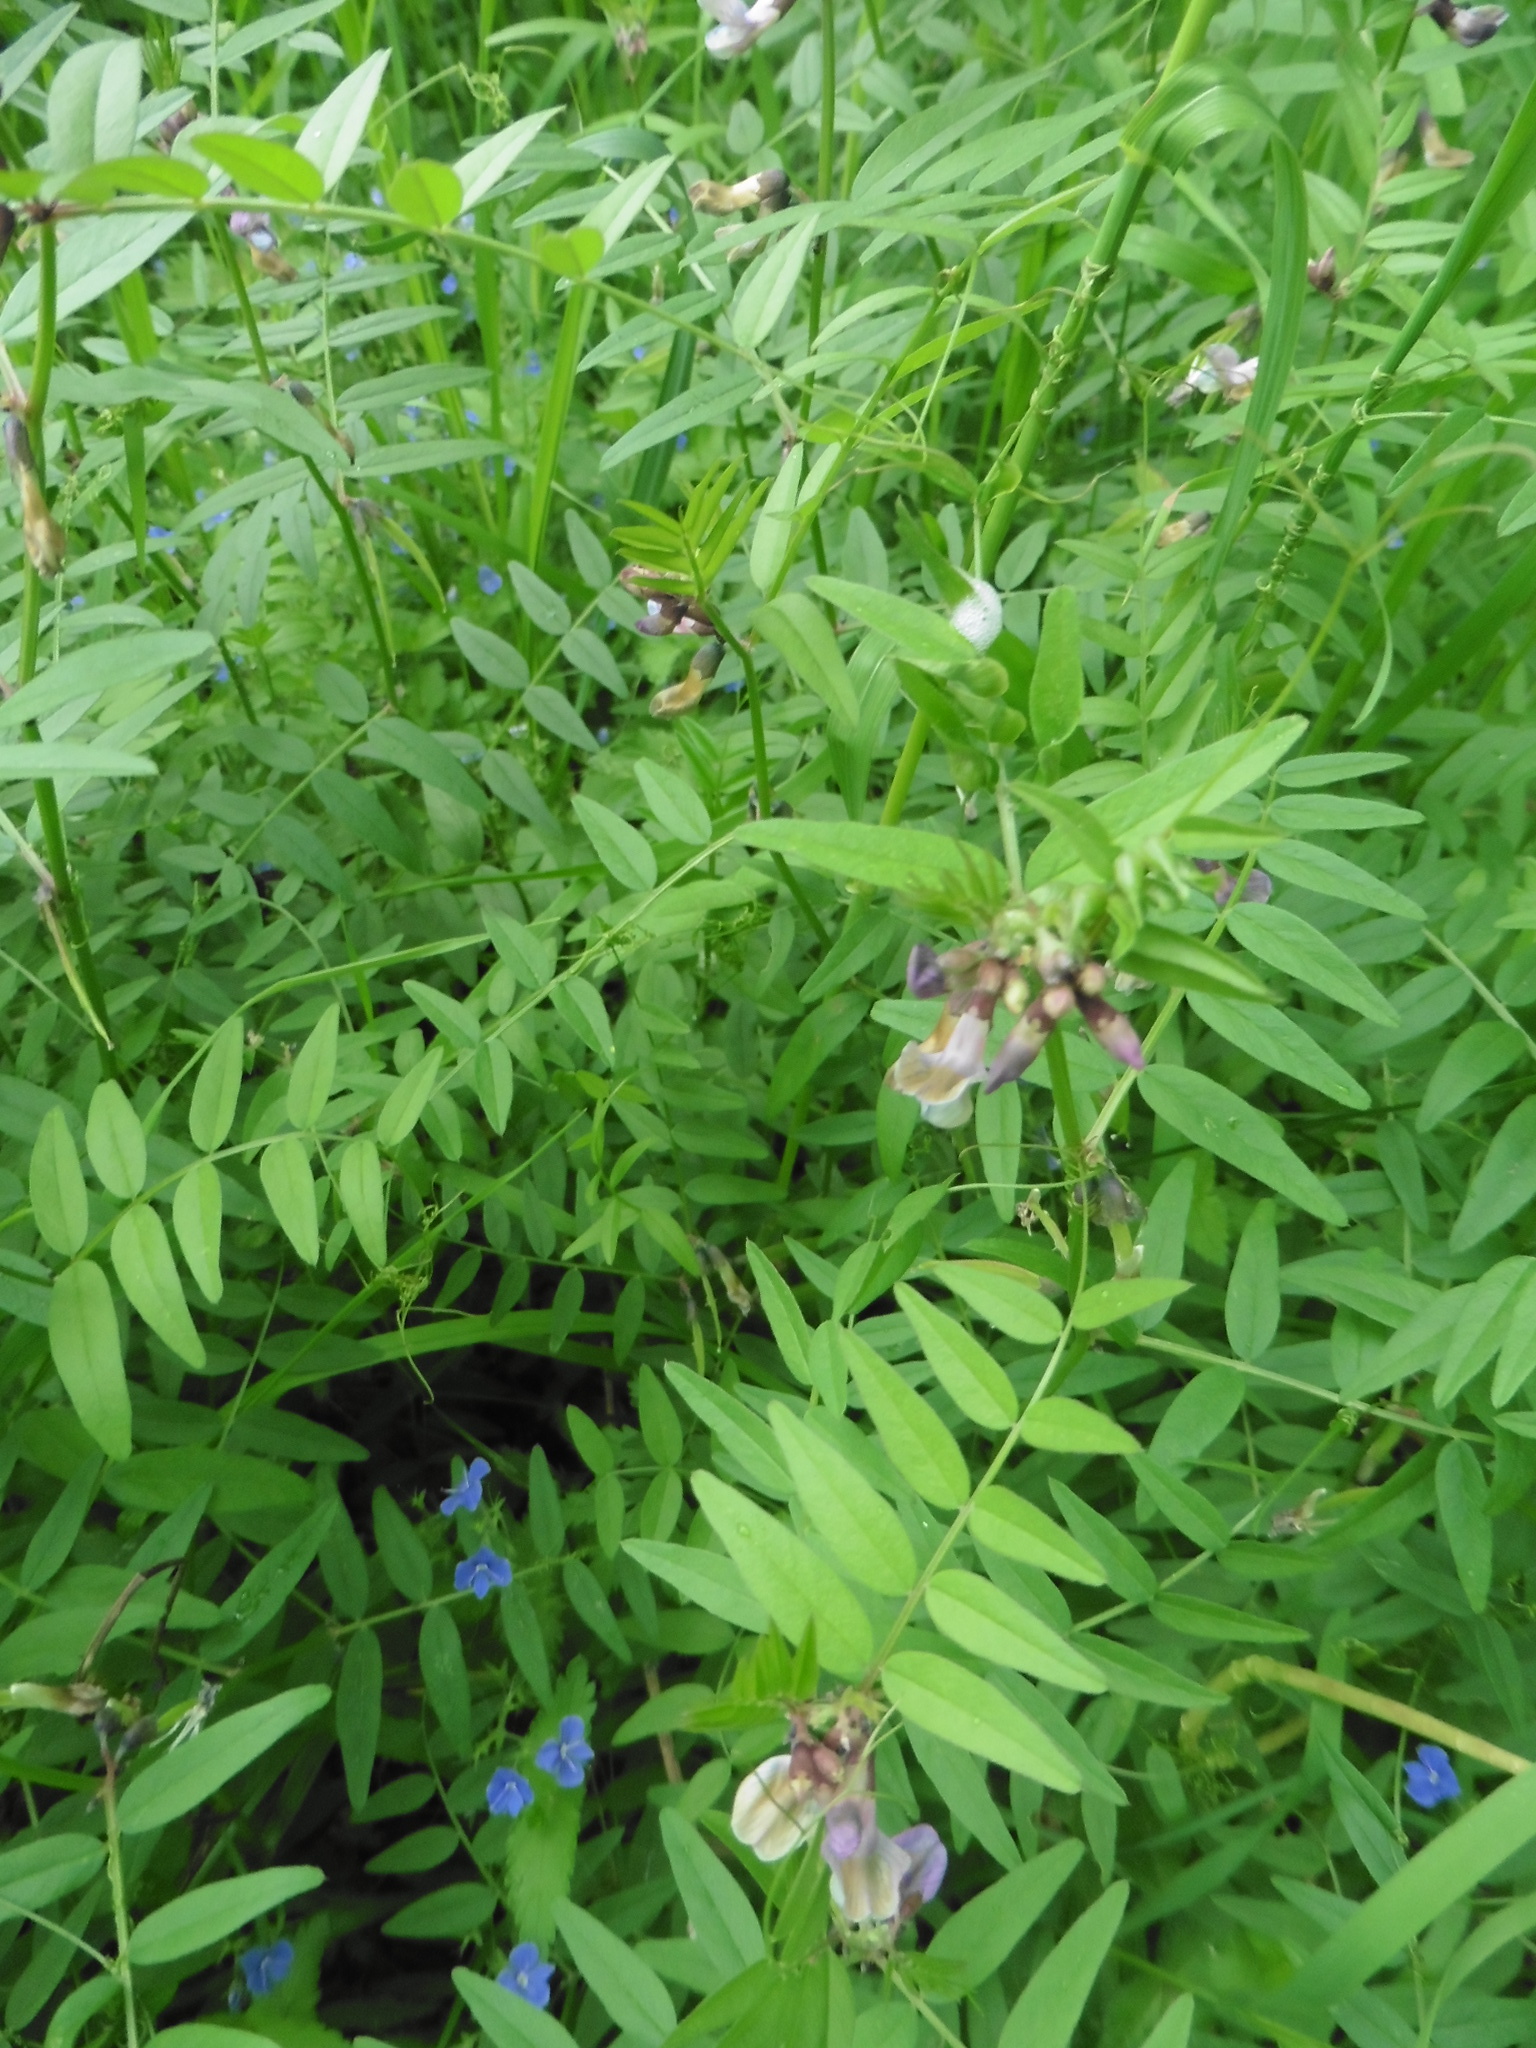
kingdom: Plantae
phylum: Tracheophyta
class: Magnoliopsida
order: Fabales
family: Fabaceae
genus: Vicia
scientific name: Vicia sepium
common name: Bush vetch
